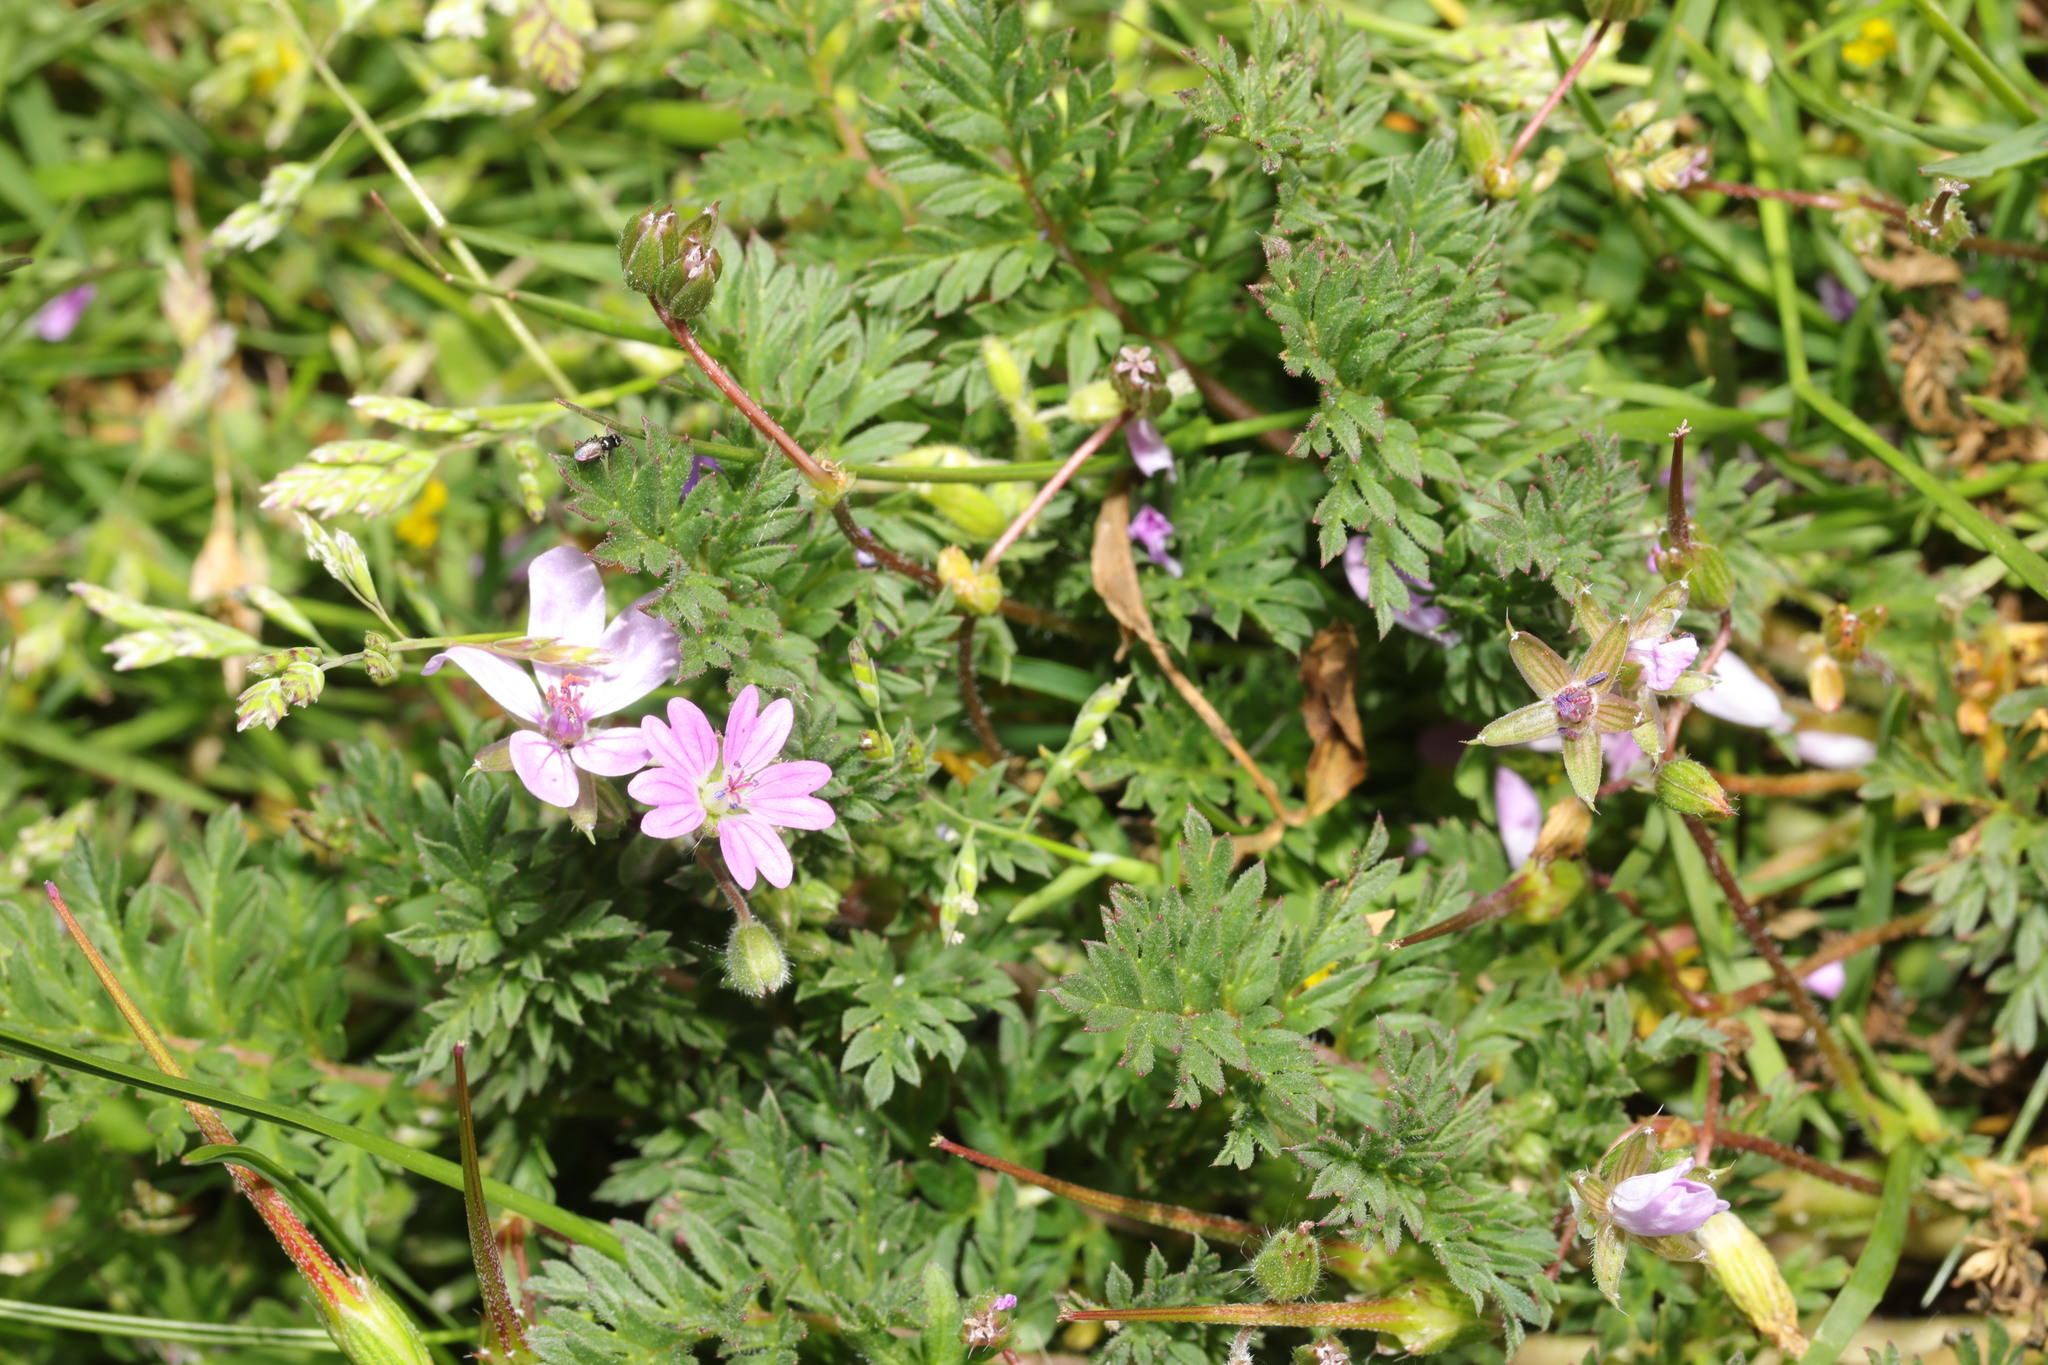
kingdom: Plantae
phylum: Tracheophyta
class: Magnoliopsida
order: Geraniales
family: Geraniaceae
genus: Erodium
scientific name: Erodium cicutarium
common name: Common stork's-bill
